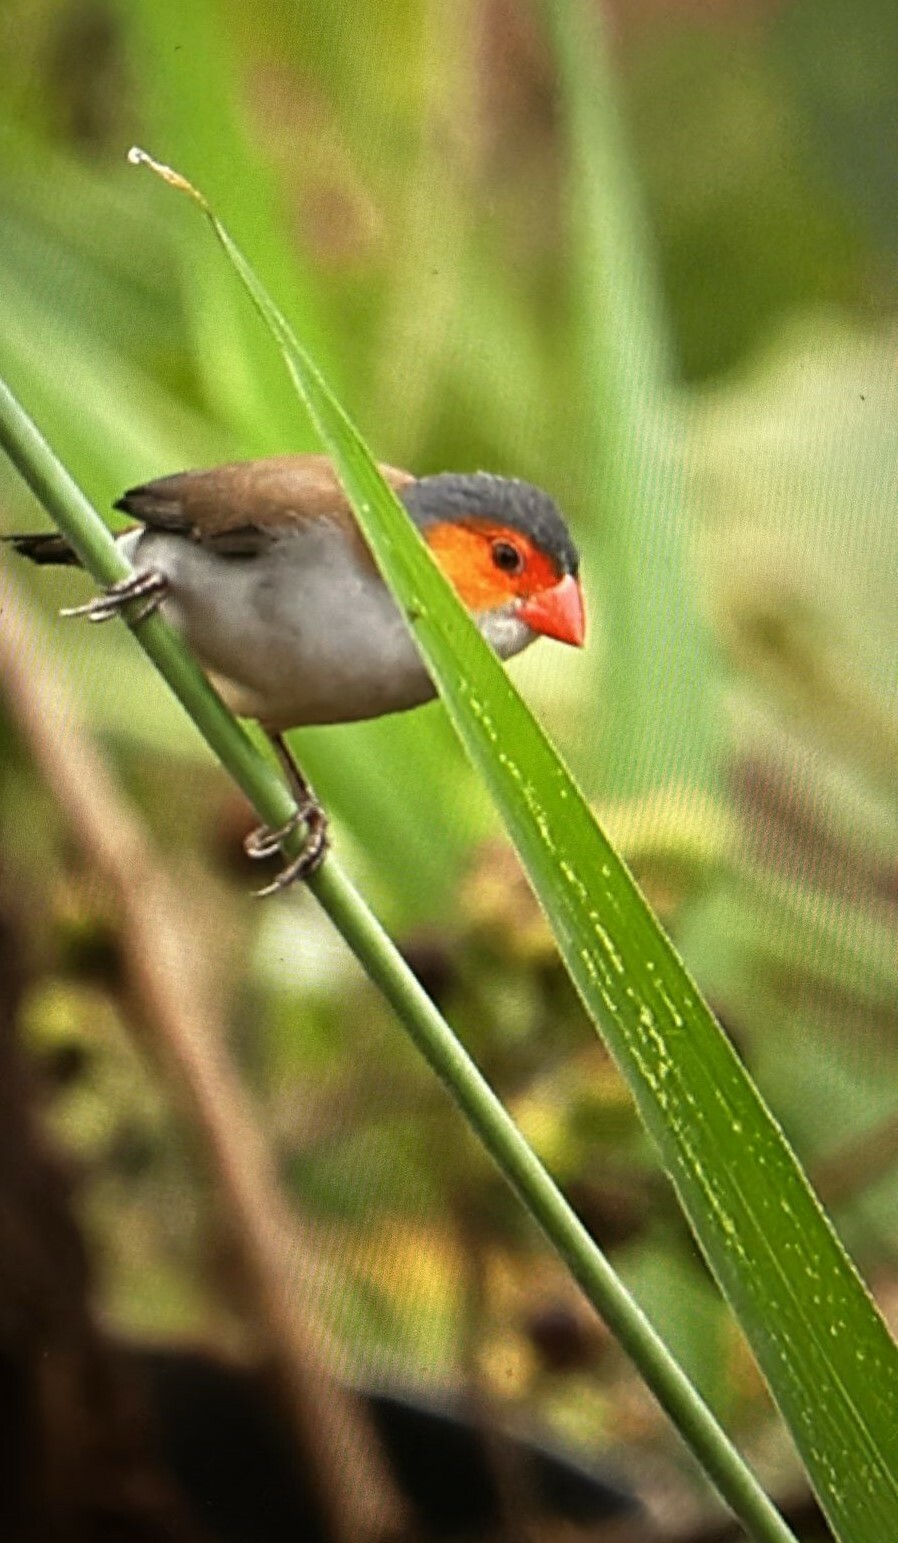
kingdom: Animalia
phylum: Chordata
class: Aves
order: Passeriformes
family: Estrildidae
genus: Estrilda
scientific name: Estrilda melpoda
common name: Orange-cheeked waxbill
